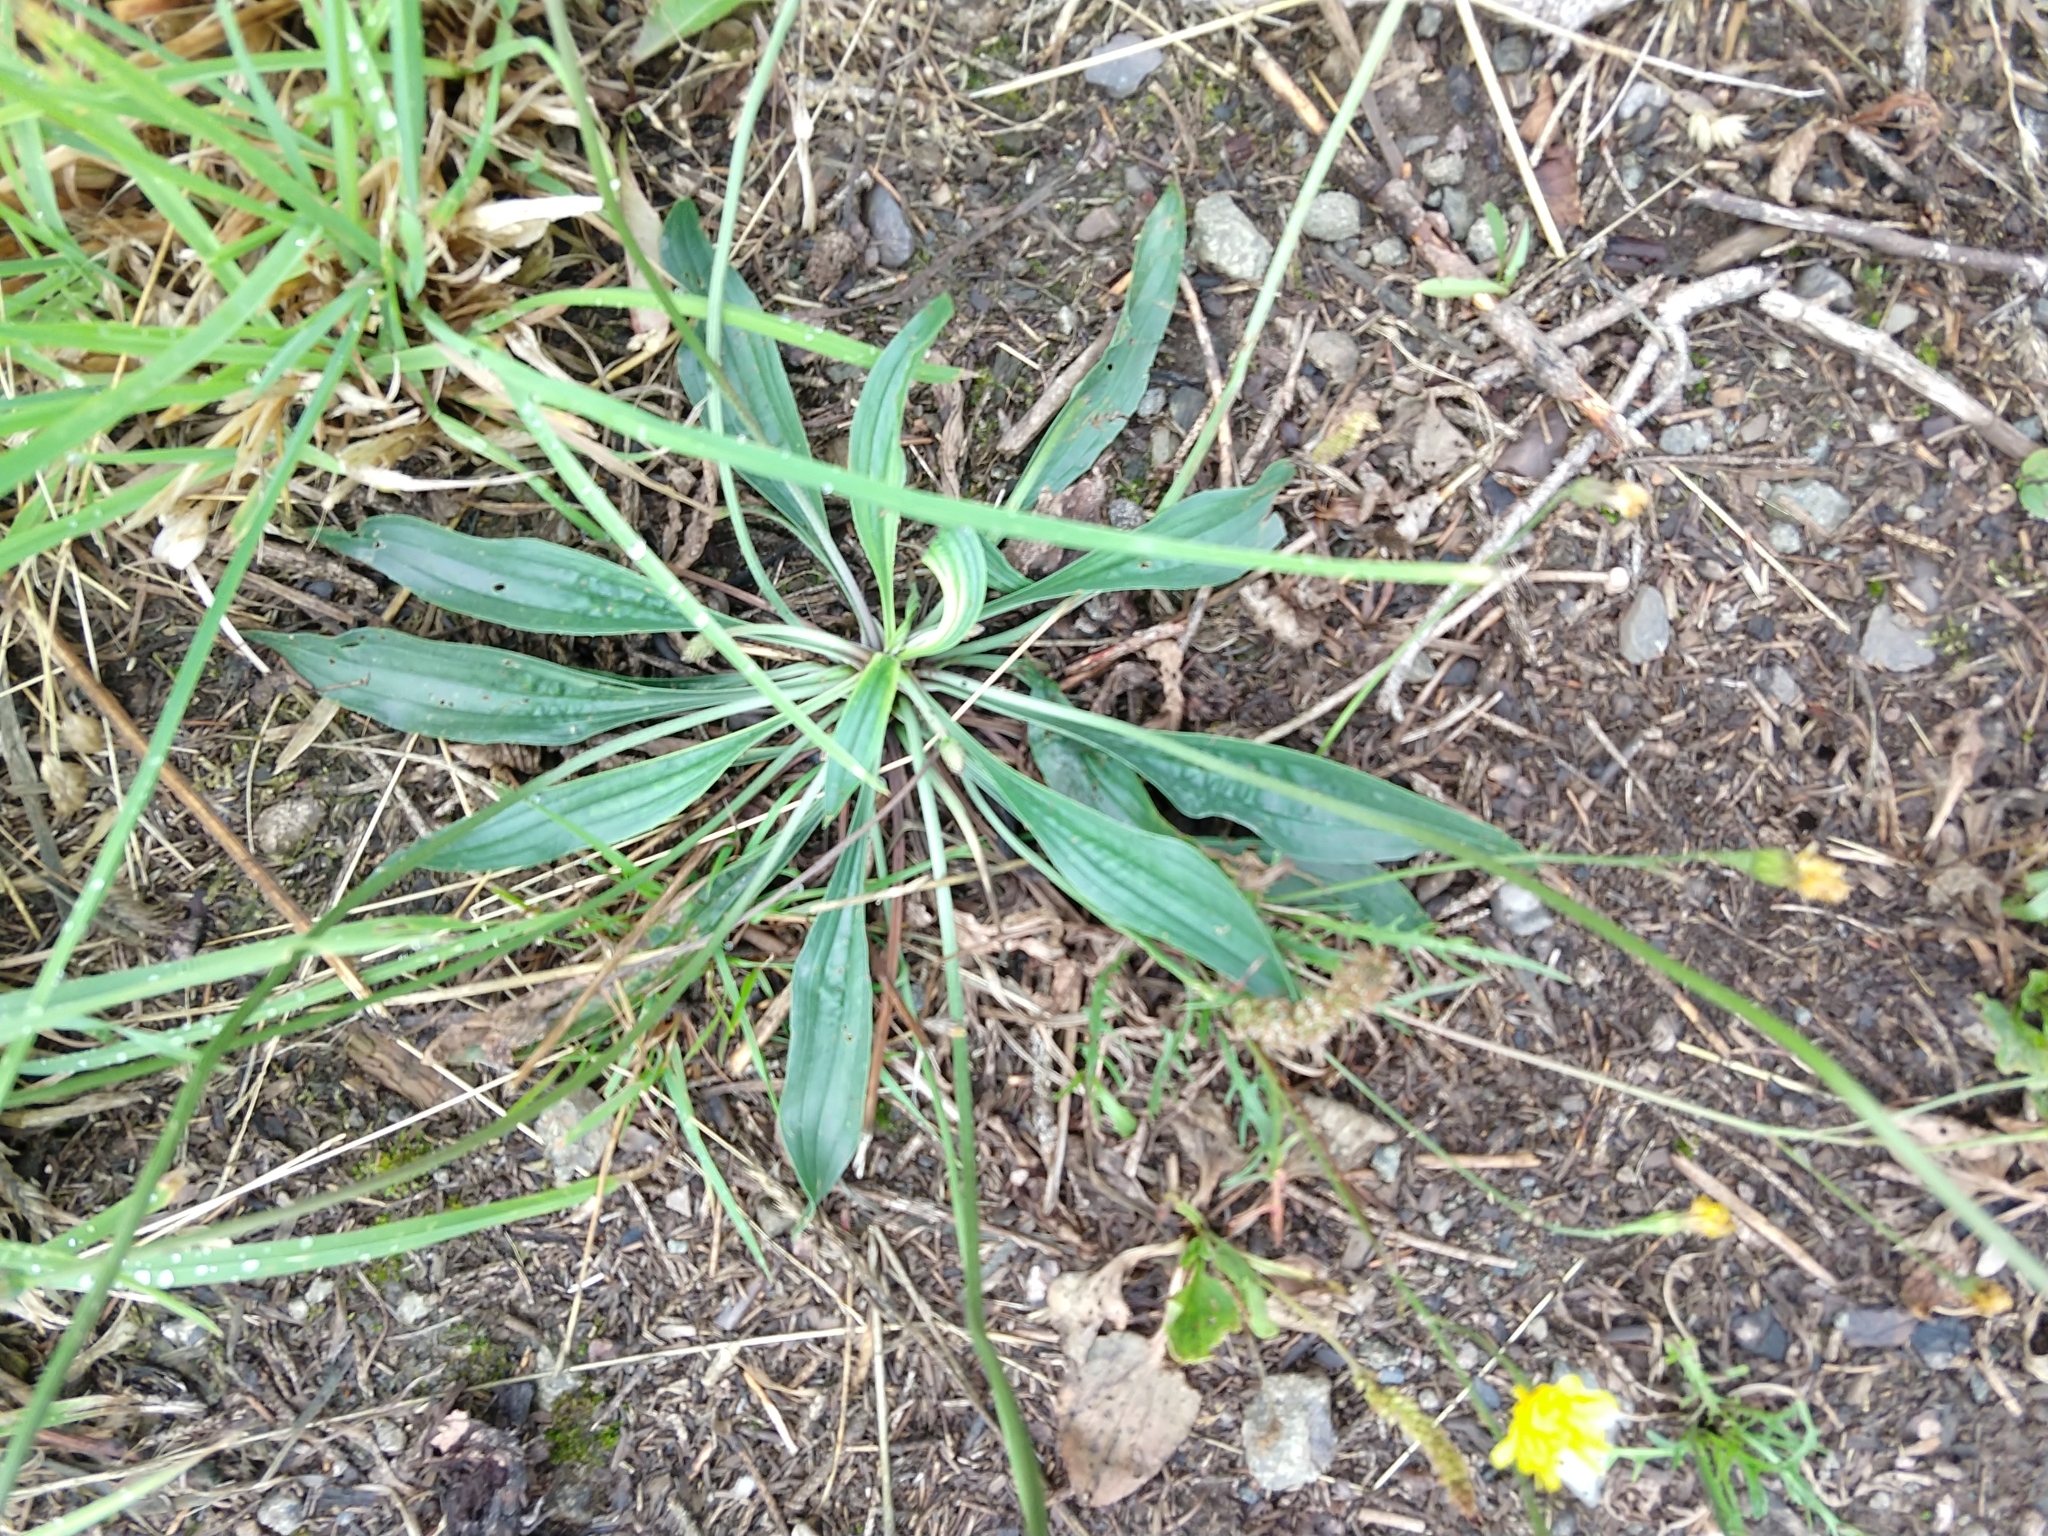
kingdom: Plantae
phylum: Tracheophyta
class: Magnoliopsida
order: Lamiales
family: Plantaginaceae
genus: Plantago
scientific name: Plantago lanceolata
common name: Ribwort plantain
